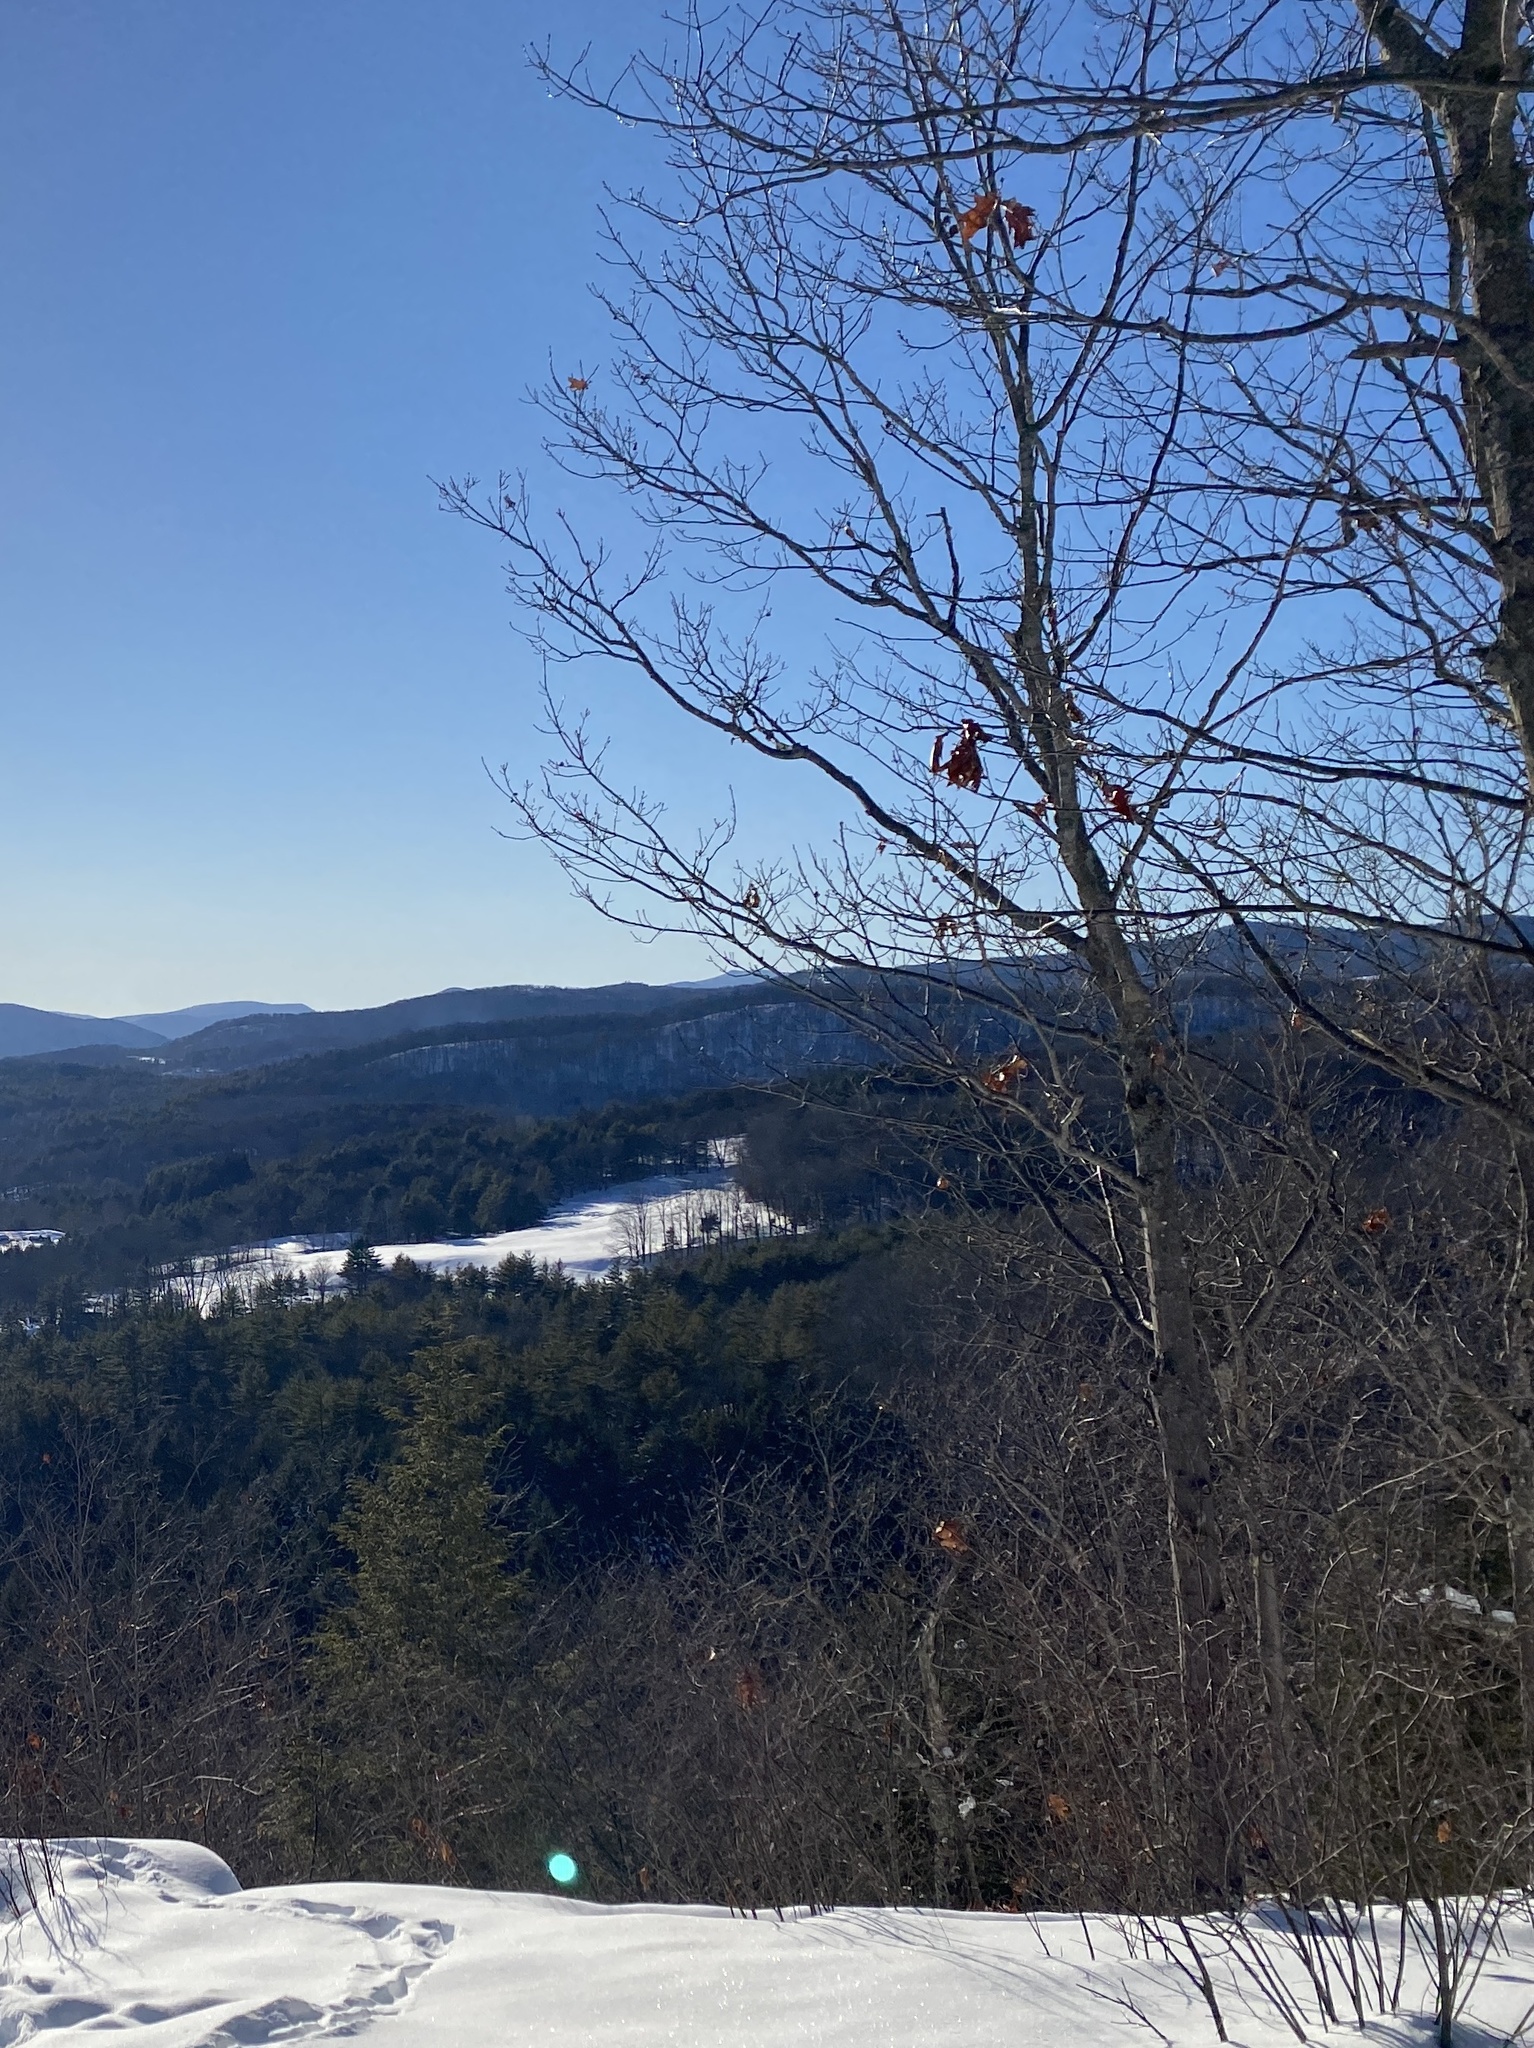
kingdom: Plantae
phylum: Tracheophyta
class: Magnoliopsida
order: Fagales
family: Fagaceae
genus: Quercus
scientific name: Quercus rubra
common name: Red oak
